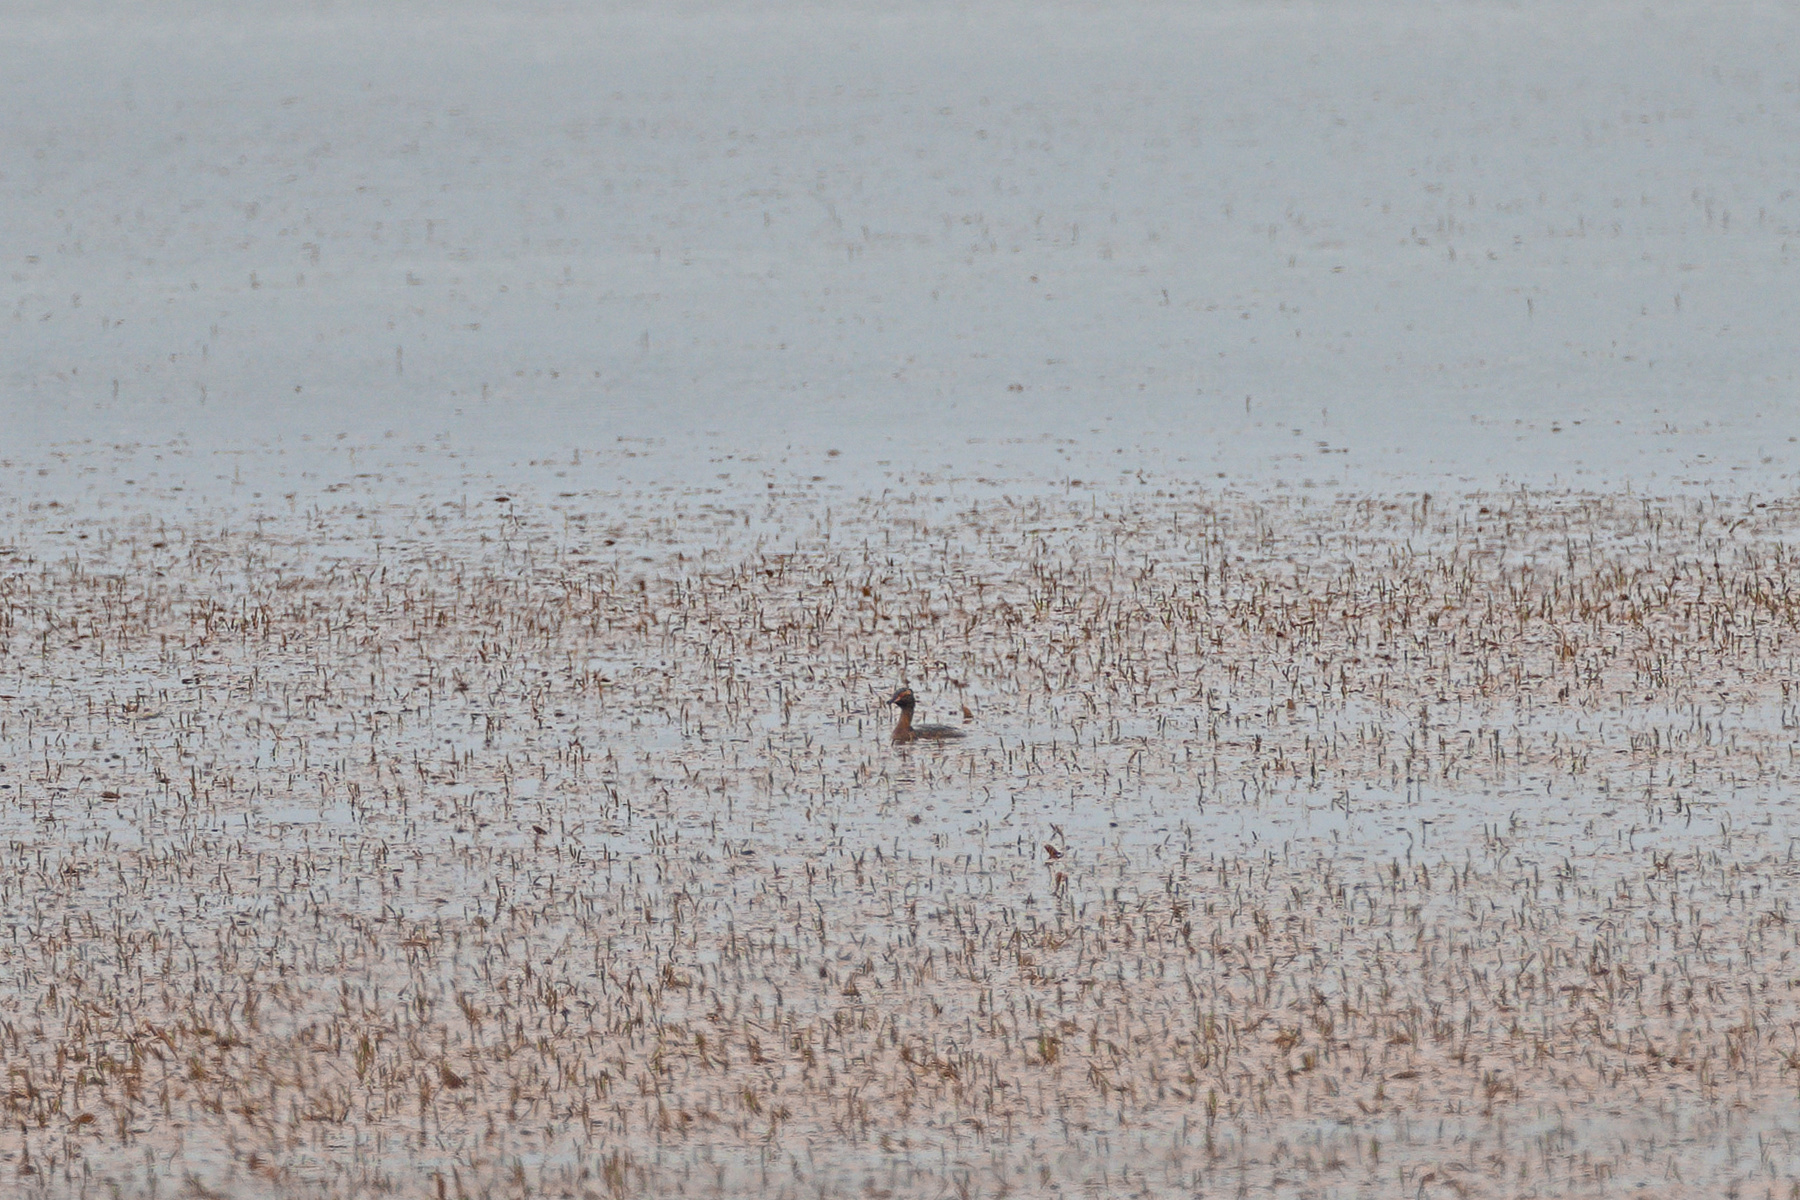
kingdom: Animalia
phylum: Chordata
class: Aves
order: Podicipediformes
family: Podicipedidae
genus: Podiceps
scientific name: Podiceps auritus
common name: Horned grebe
